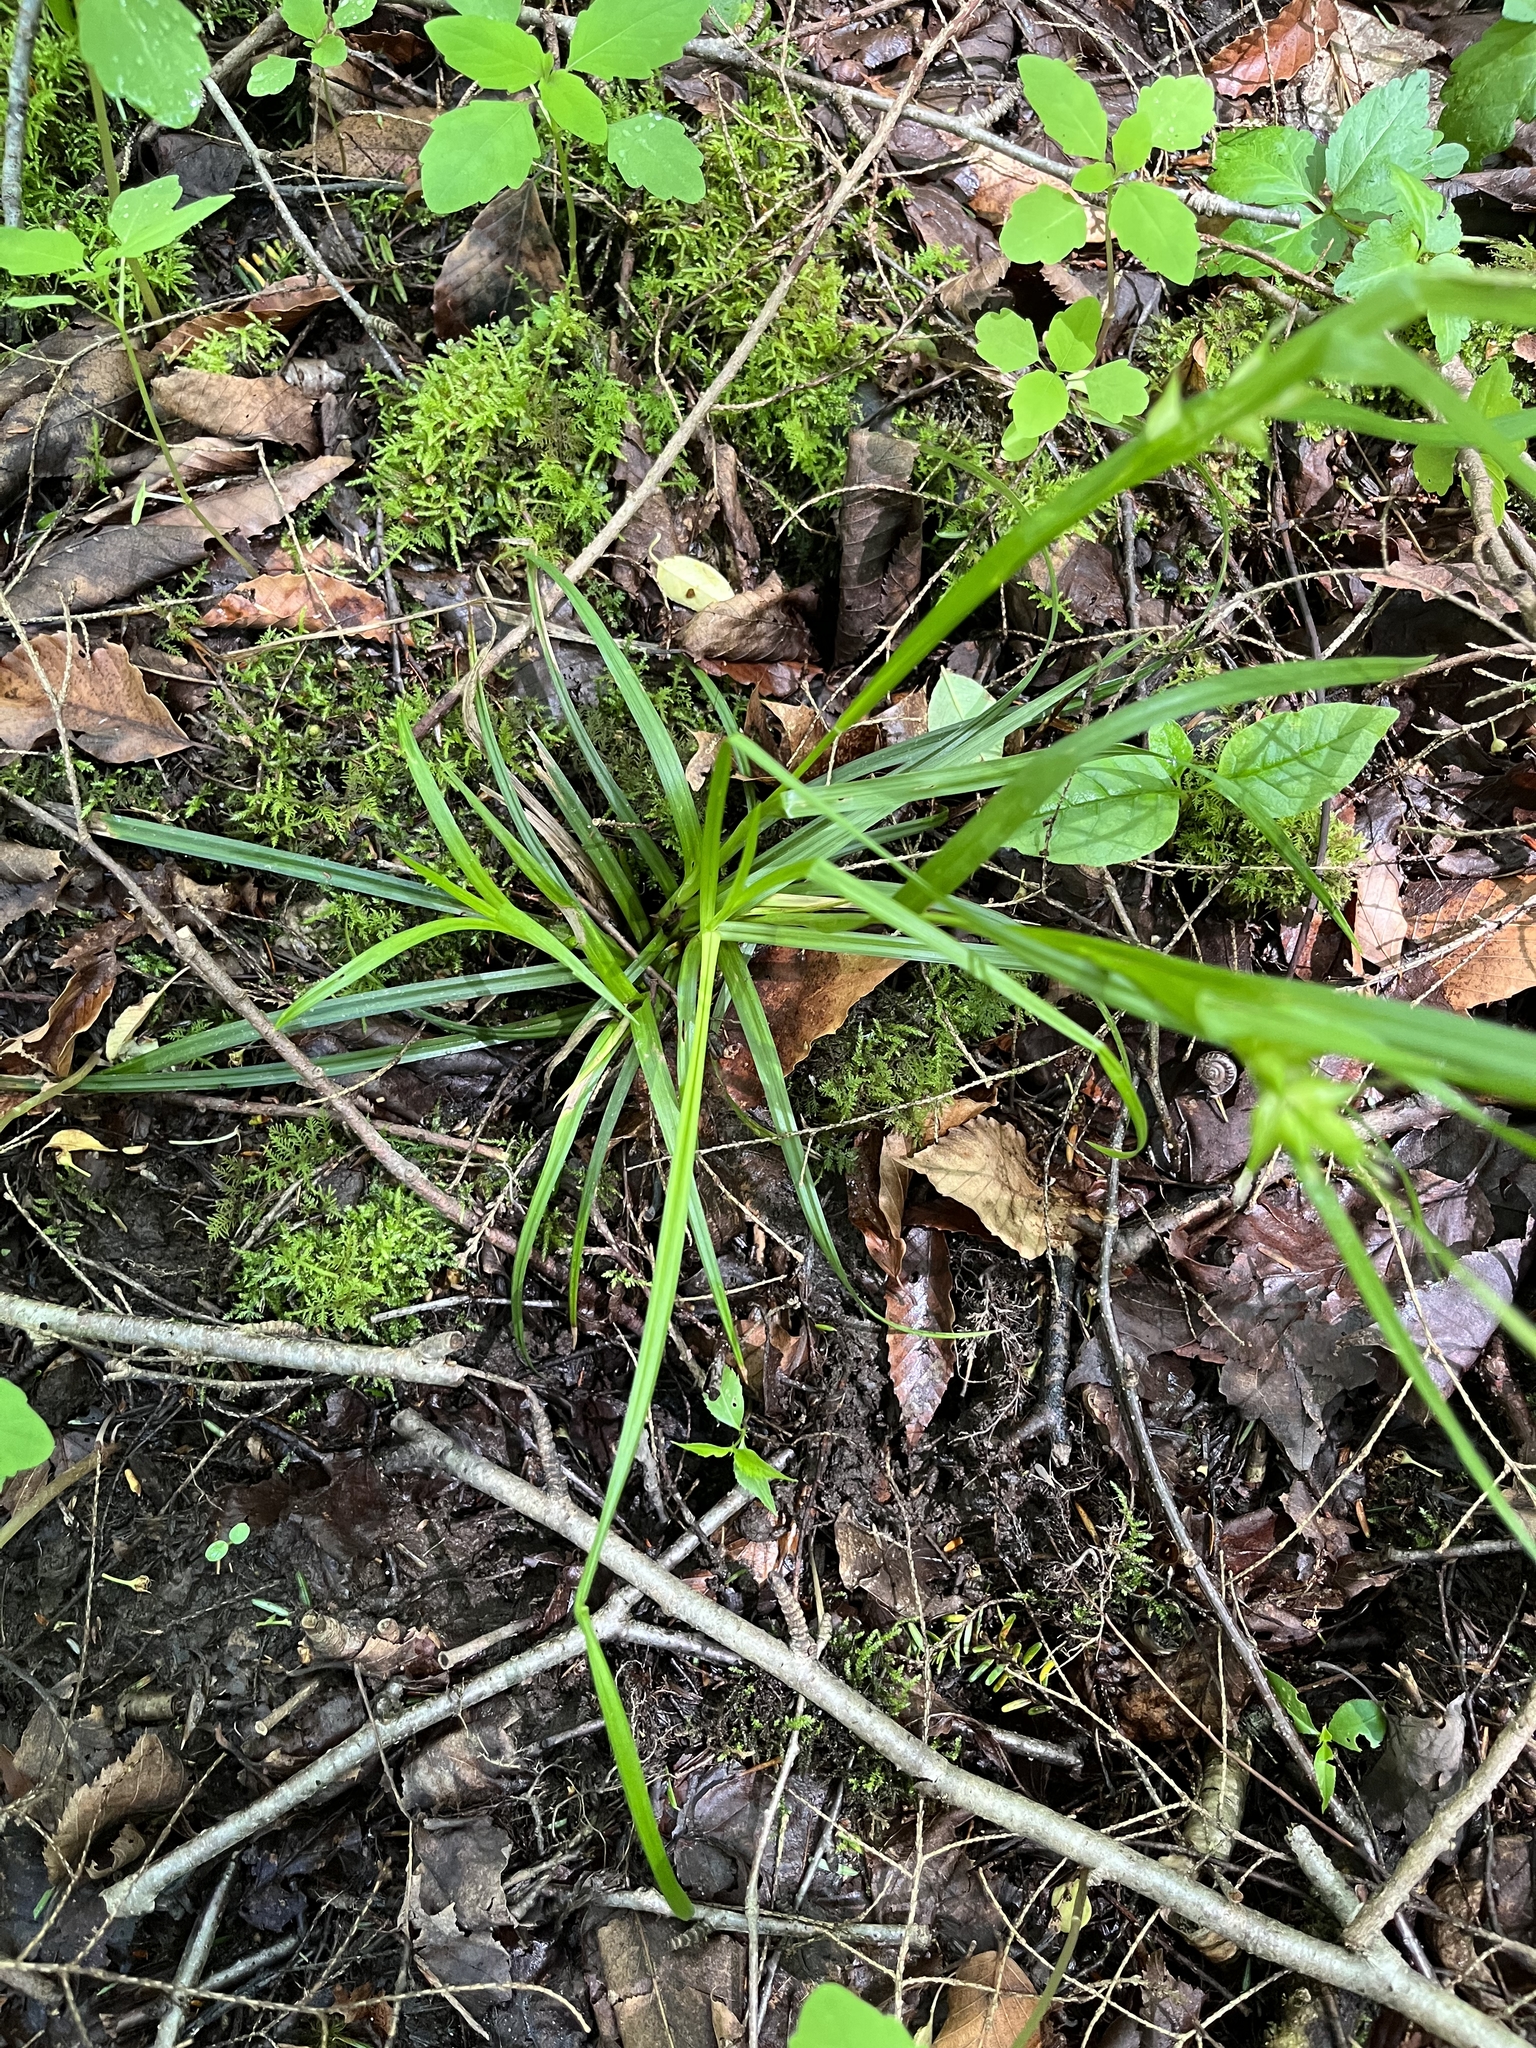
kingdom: Plantae
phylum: Tracheophyta
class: Liliopsida
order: Poales
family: Cyperaceae
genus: Carex
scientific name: Carex intumescens
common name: Greater bladder sedge
